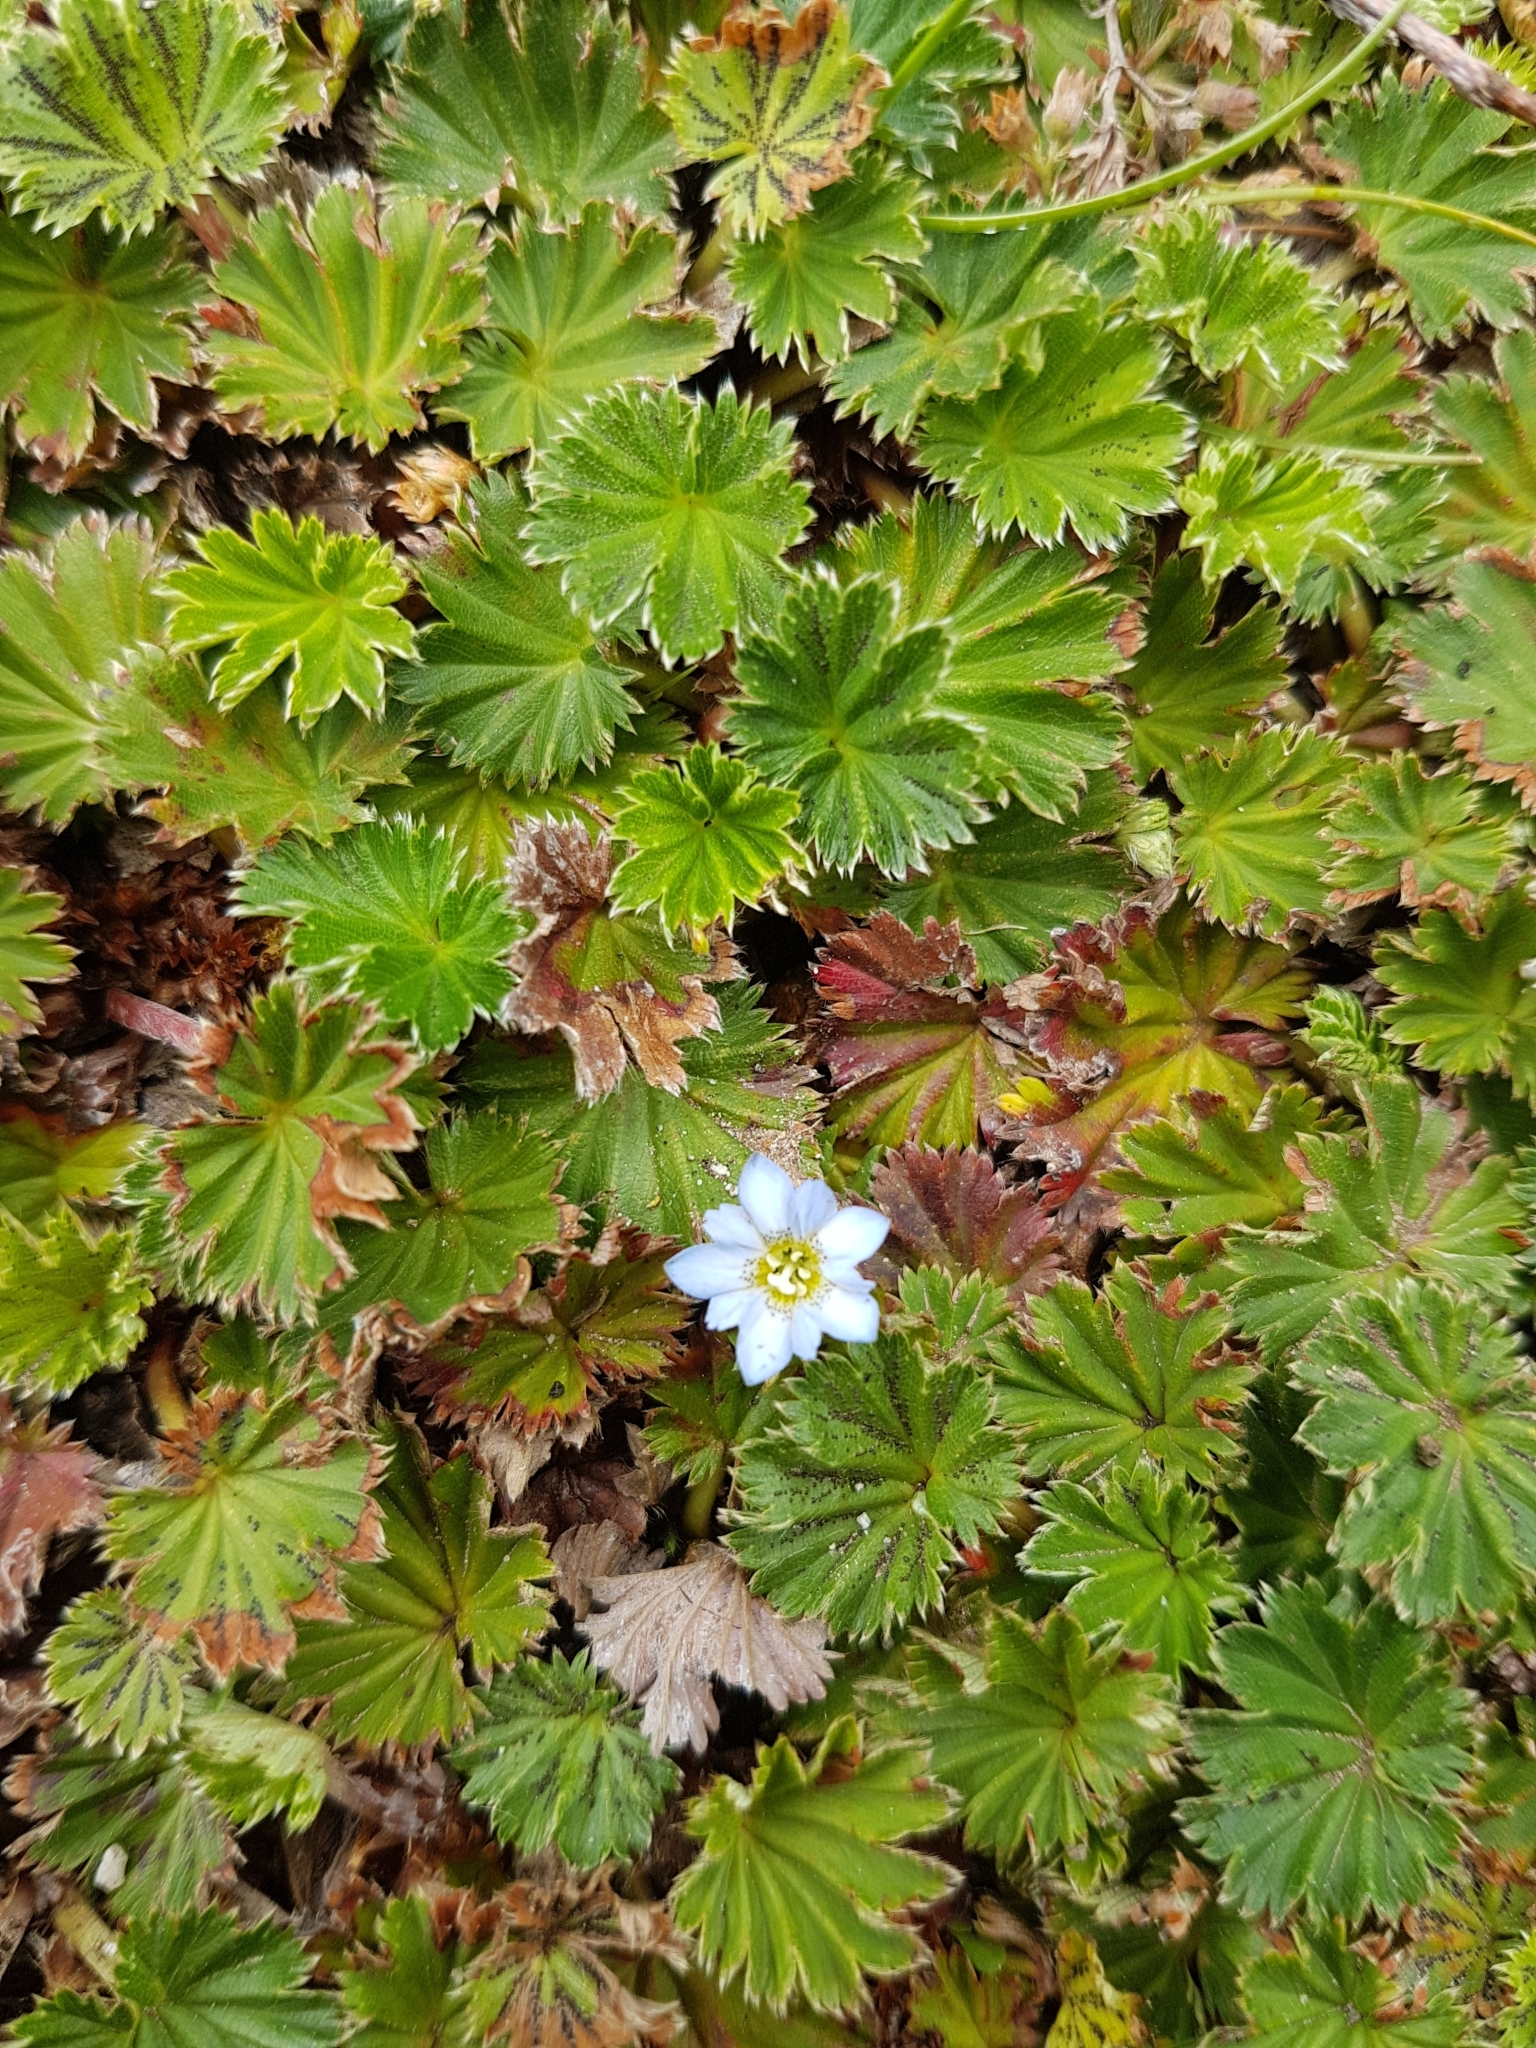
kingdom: Plantae
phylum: Tracheophyta
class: Magnoliopsida
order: Gentianales
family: Gentianaceae
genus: Gentiana
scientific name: Gentiana sedifolia
